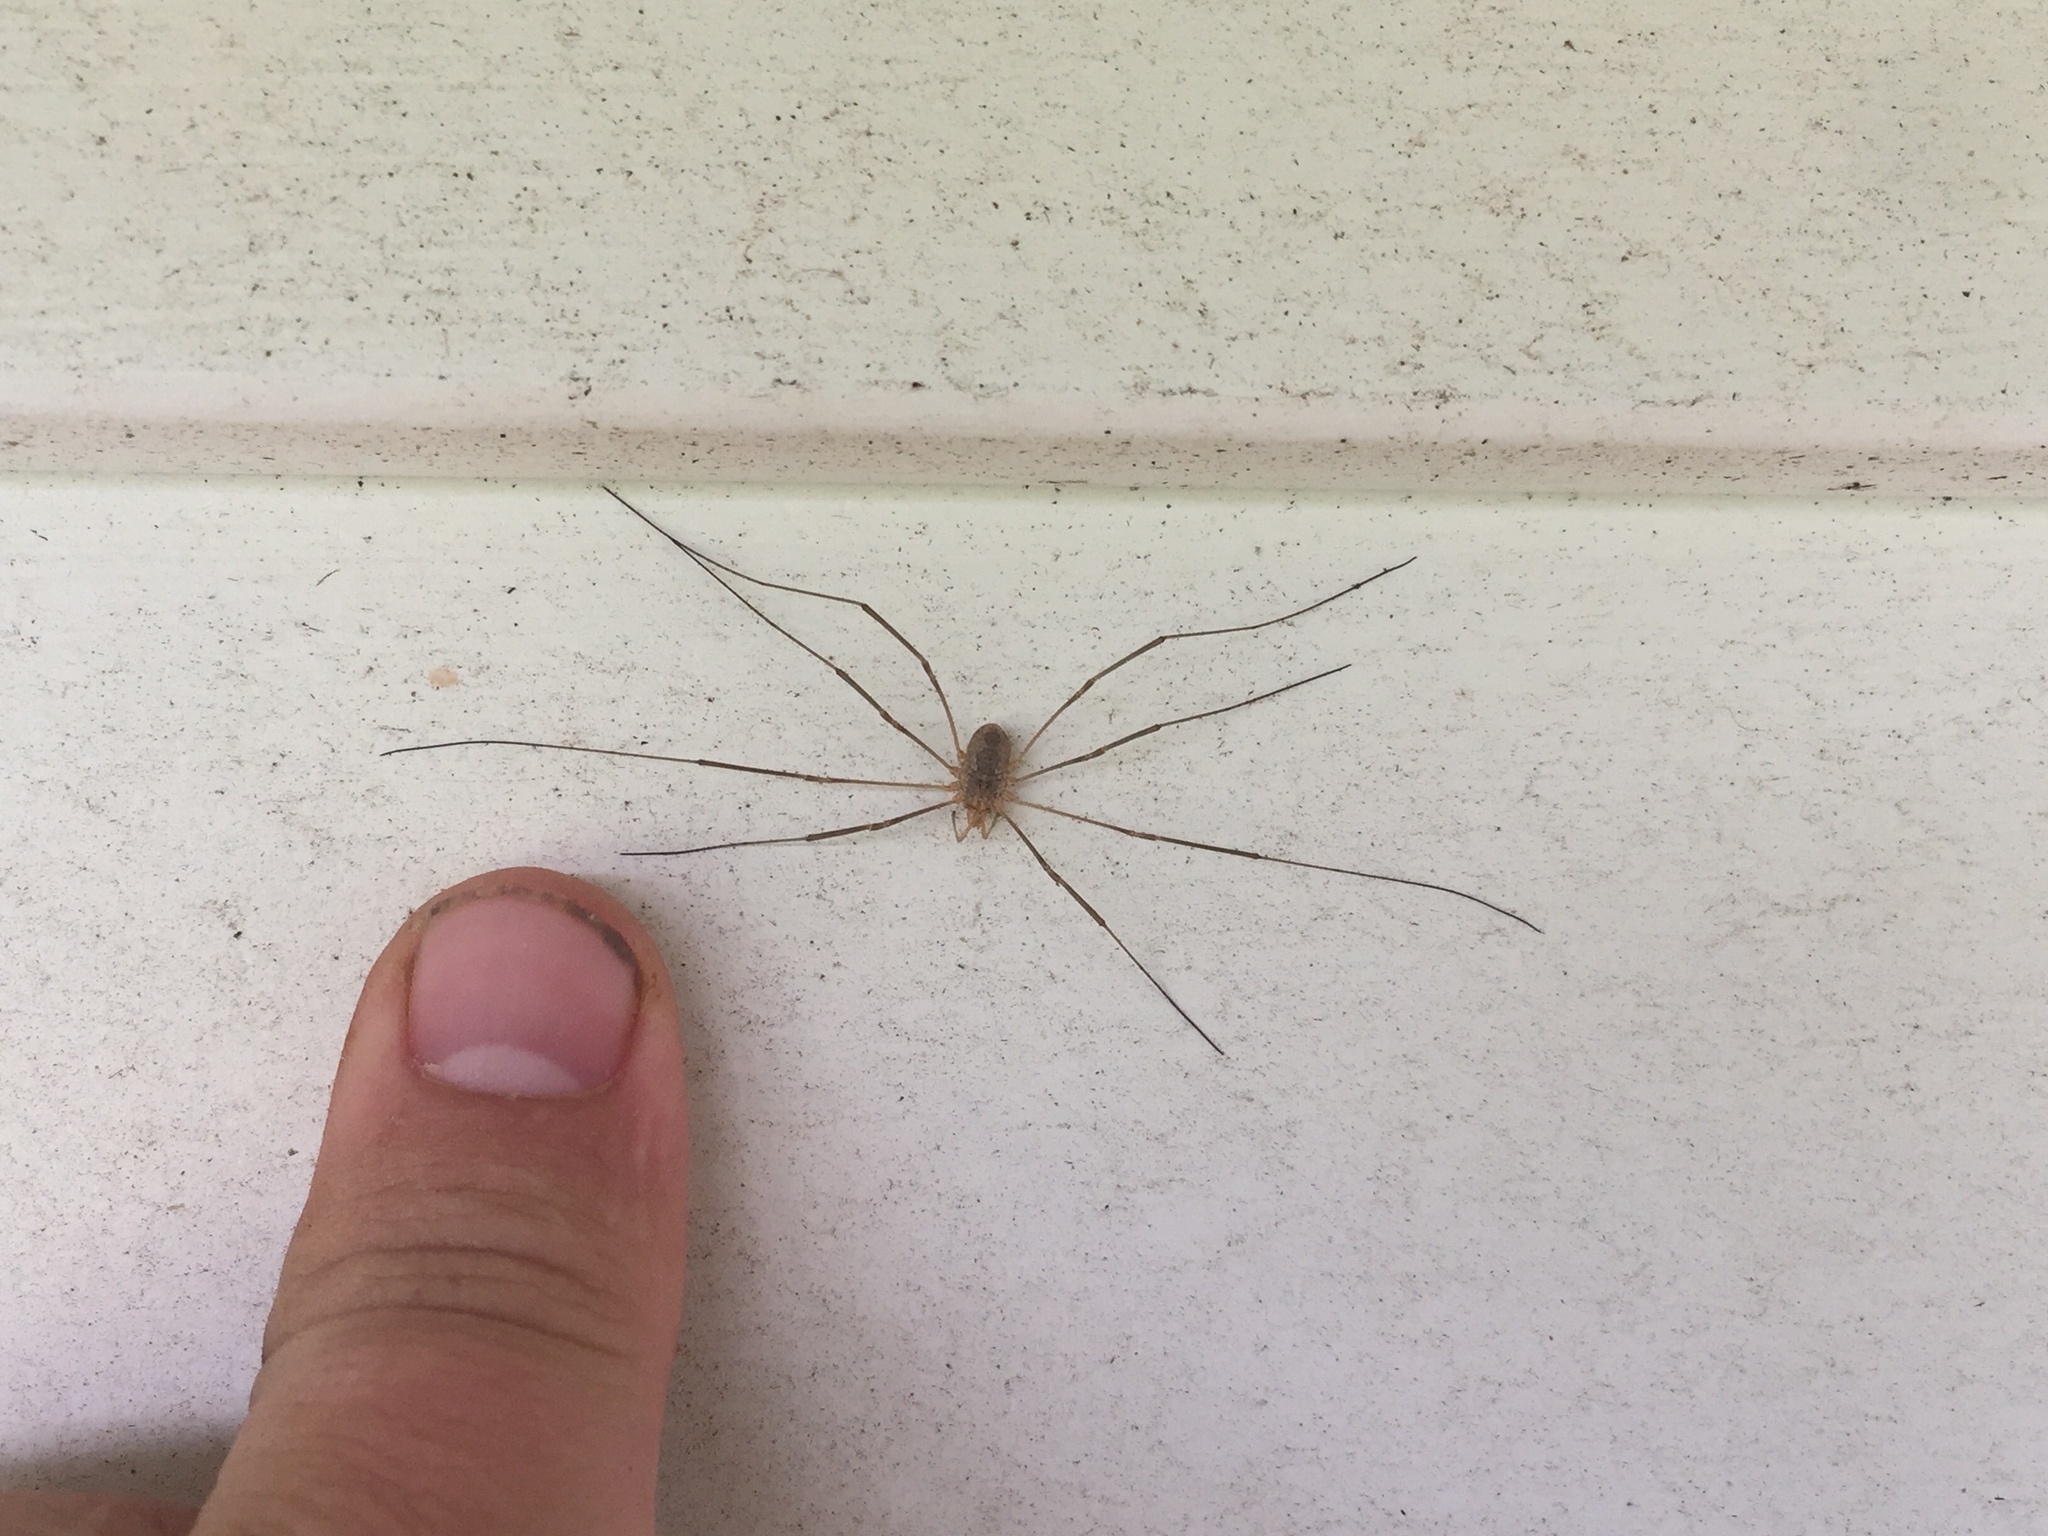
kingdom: Animalia
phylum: Arthropoda
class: Arachnida
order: Opiliones
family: Phalangiidae
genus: Phalangium
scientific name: Phalangium opilio
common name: Daddy longleg
